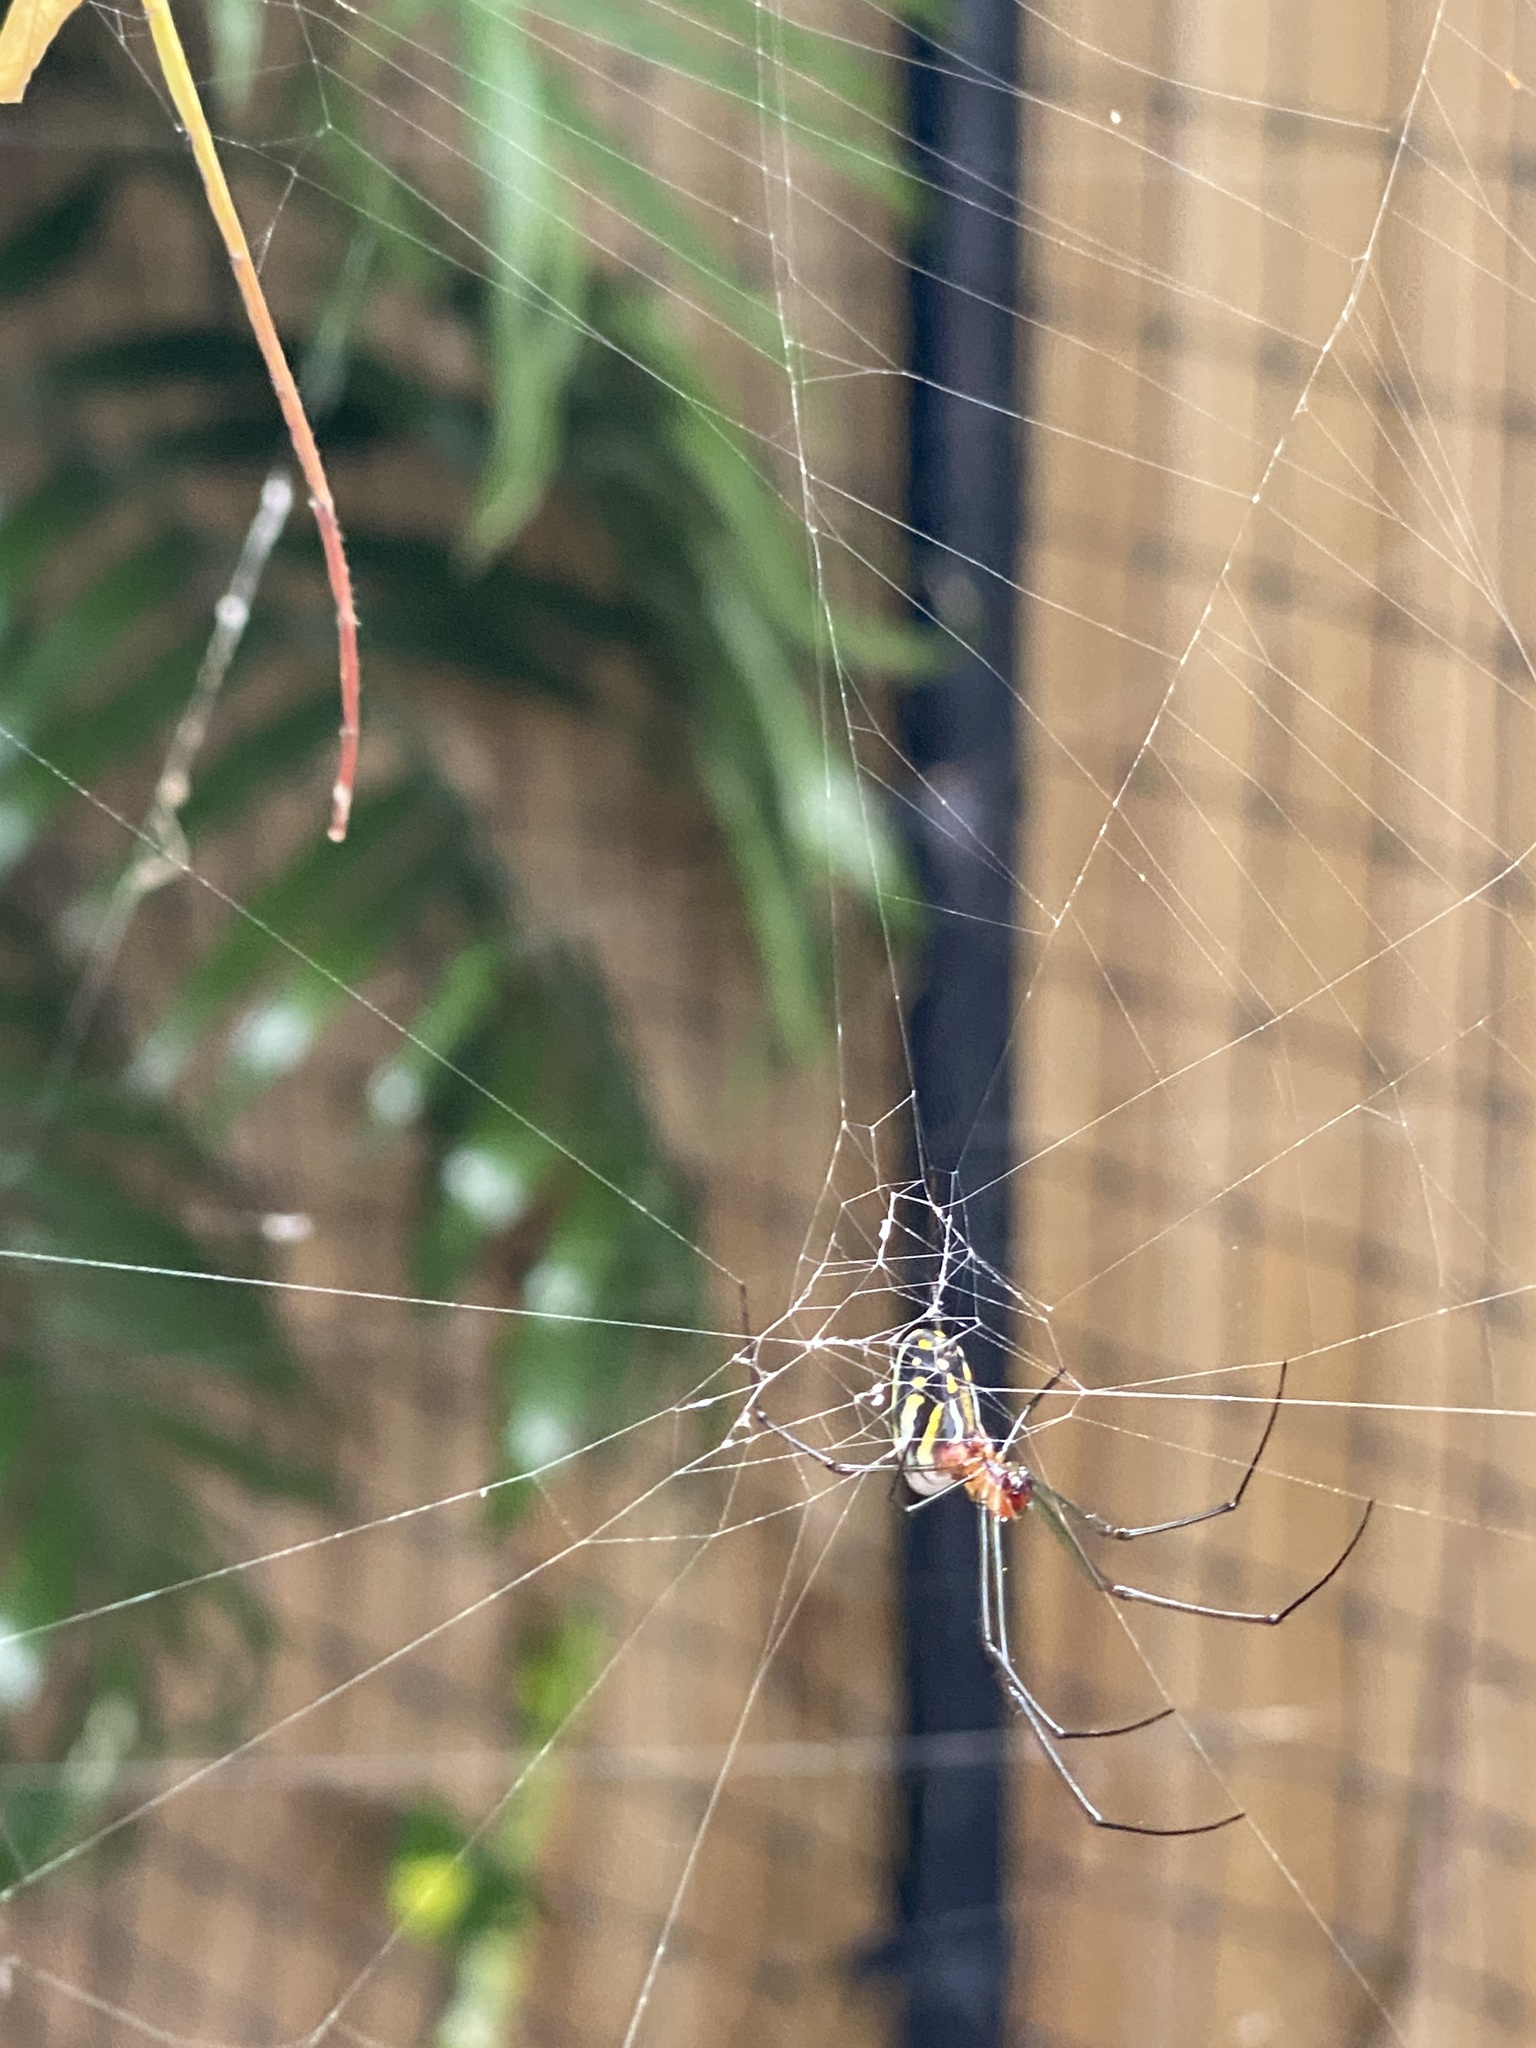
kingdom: Animalia
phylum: Arthropoda
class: Arachnida
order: Araneae
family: Tetragnathidae
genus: Leucauge
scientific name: Leucauge argyra
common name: Longjawed orb weavers
